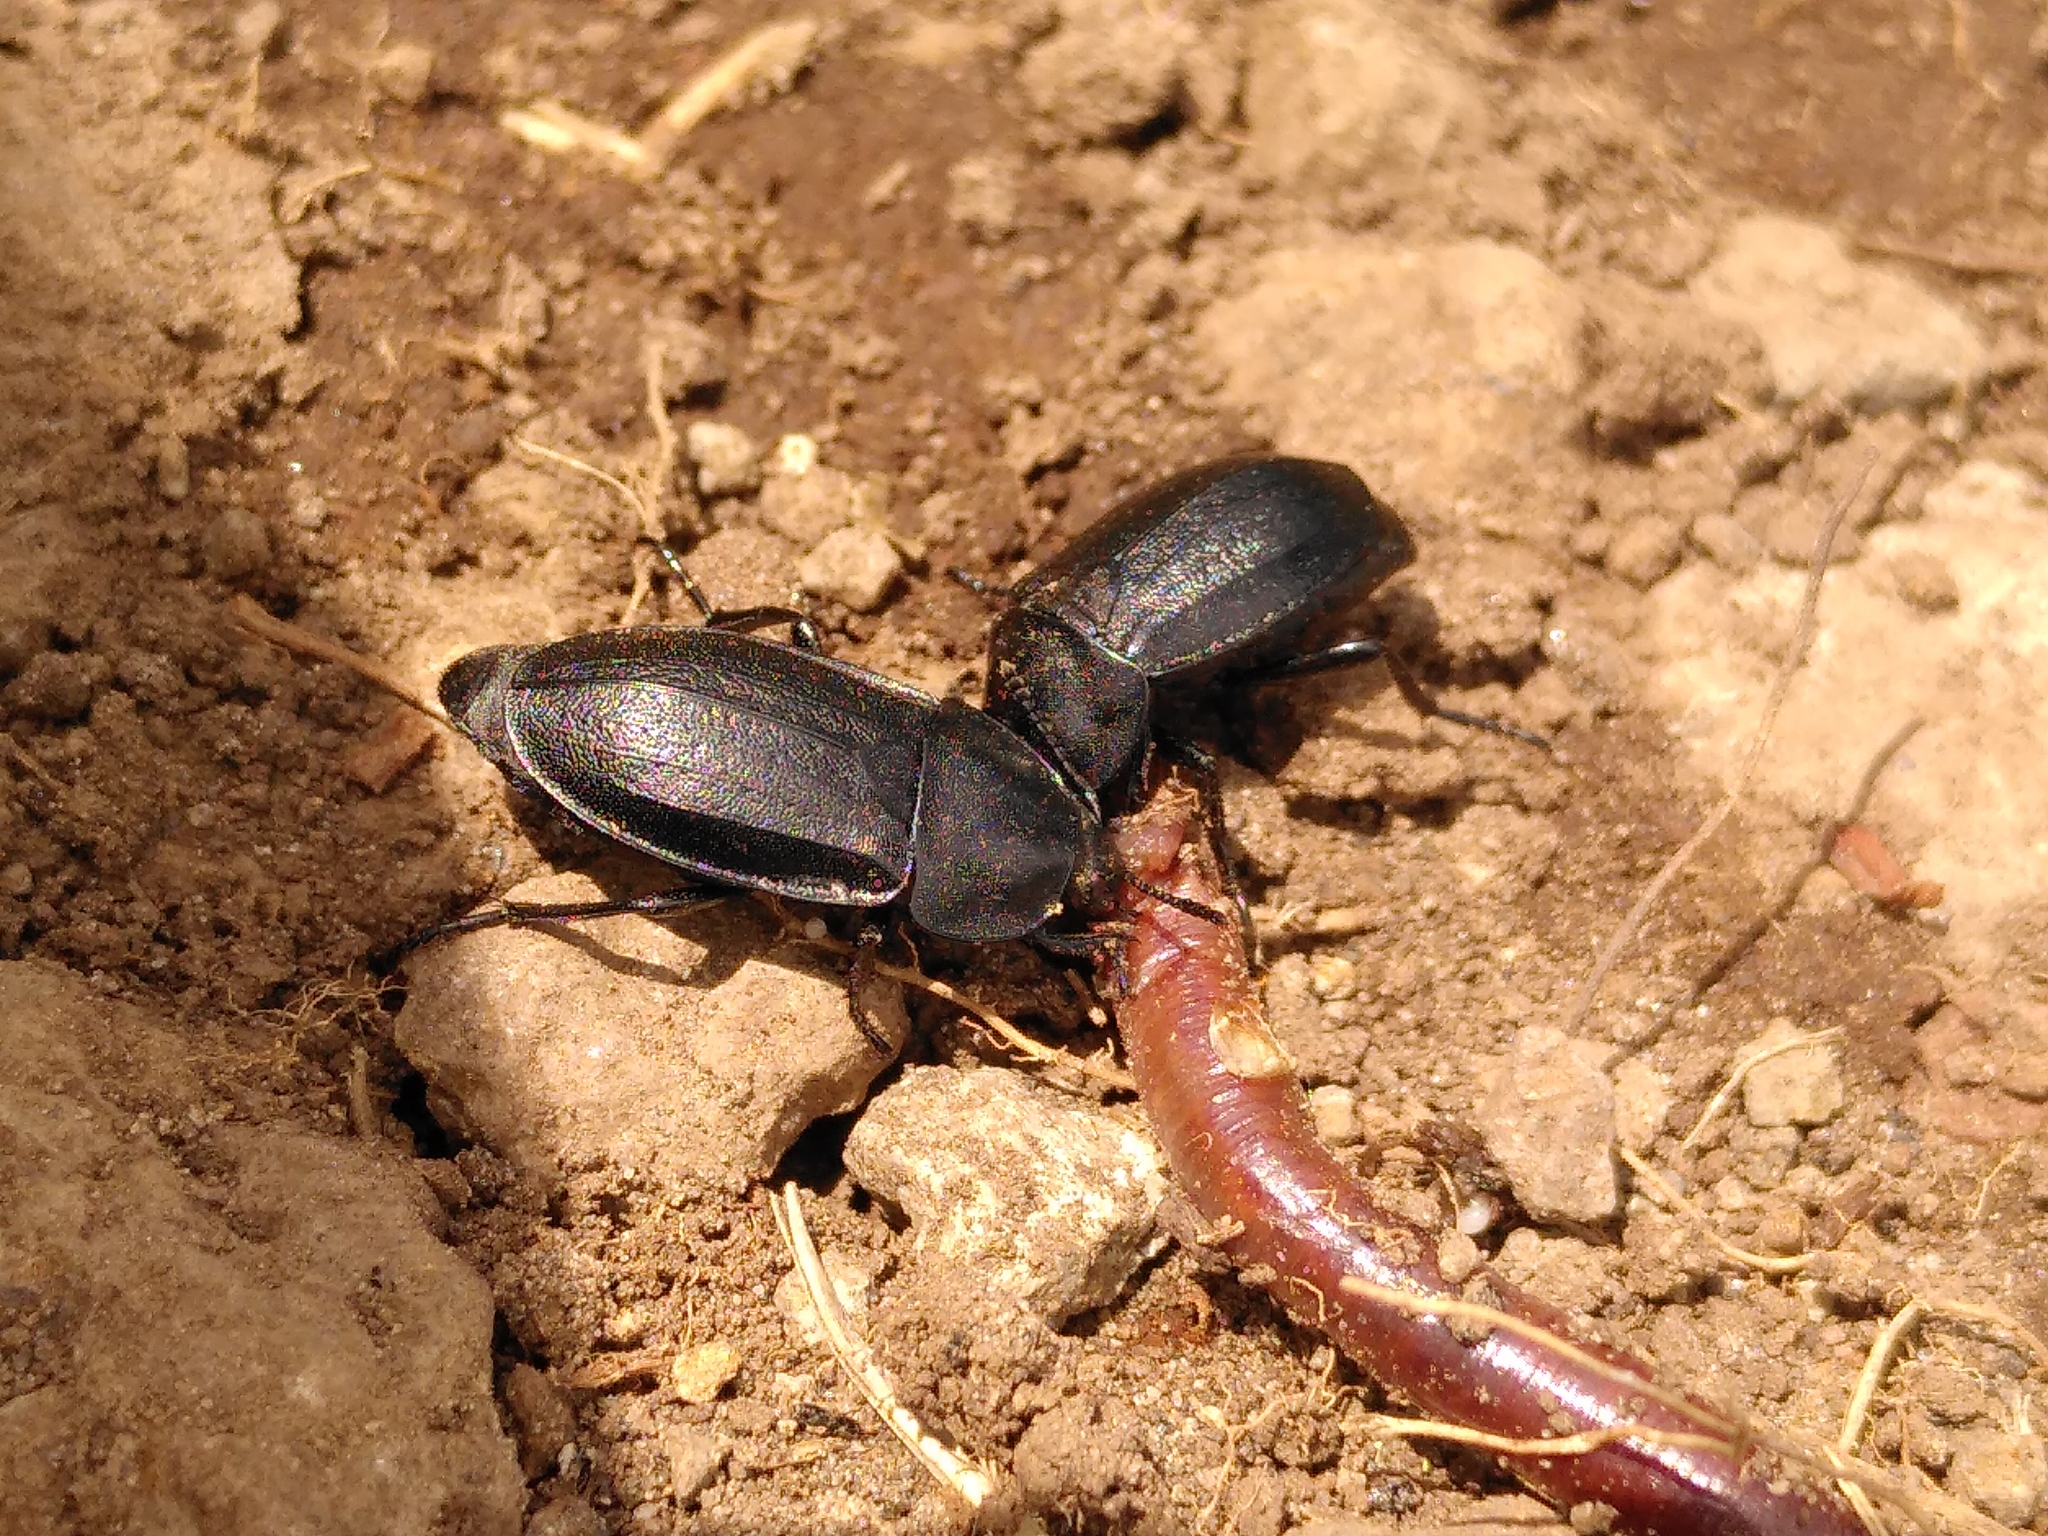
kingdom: Animalia
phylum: Arthropoda
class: Insecta
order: Coleoptera
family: Staphylinidae
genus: Silpha
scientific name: Silpha tyrolensis
